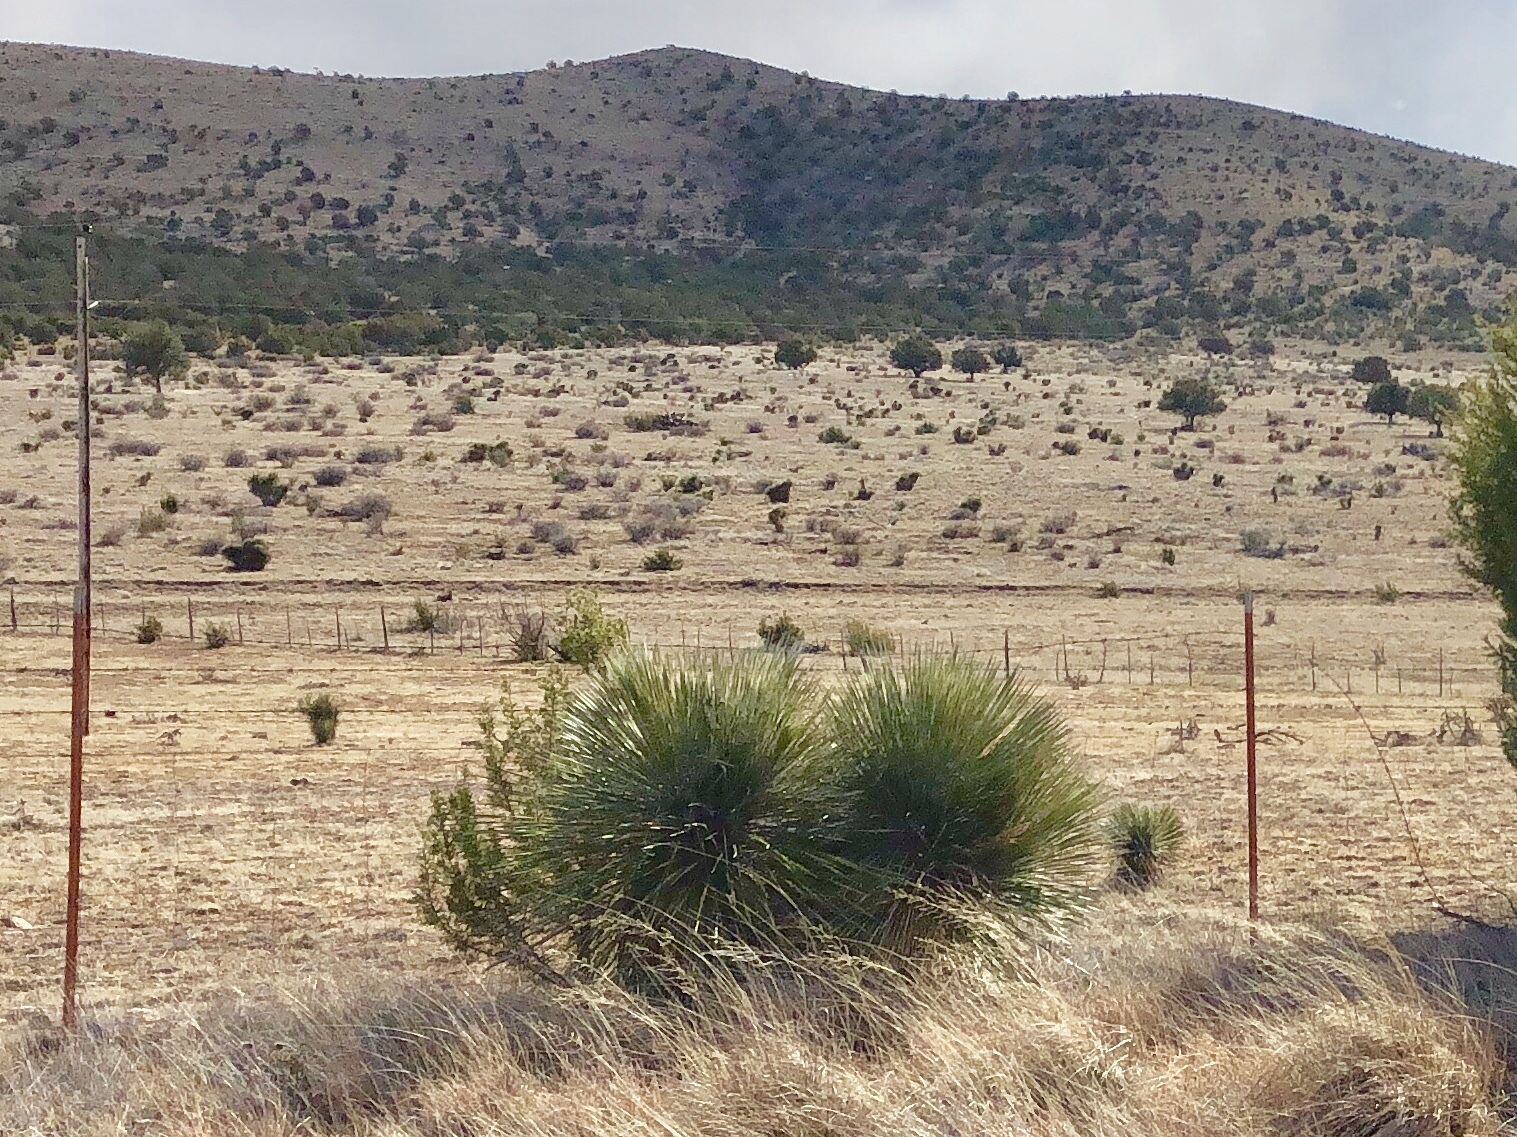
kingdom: Plantae
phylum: Tracheophyta
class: Liliopsida
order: Asparagales
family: Asparagaceae
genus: Yucca
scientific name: Yucca elata
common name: Palmella
